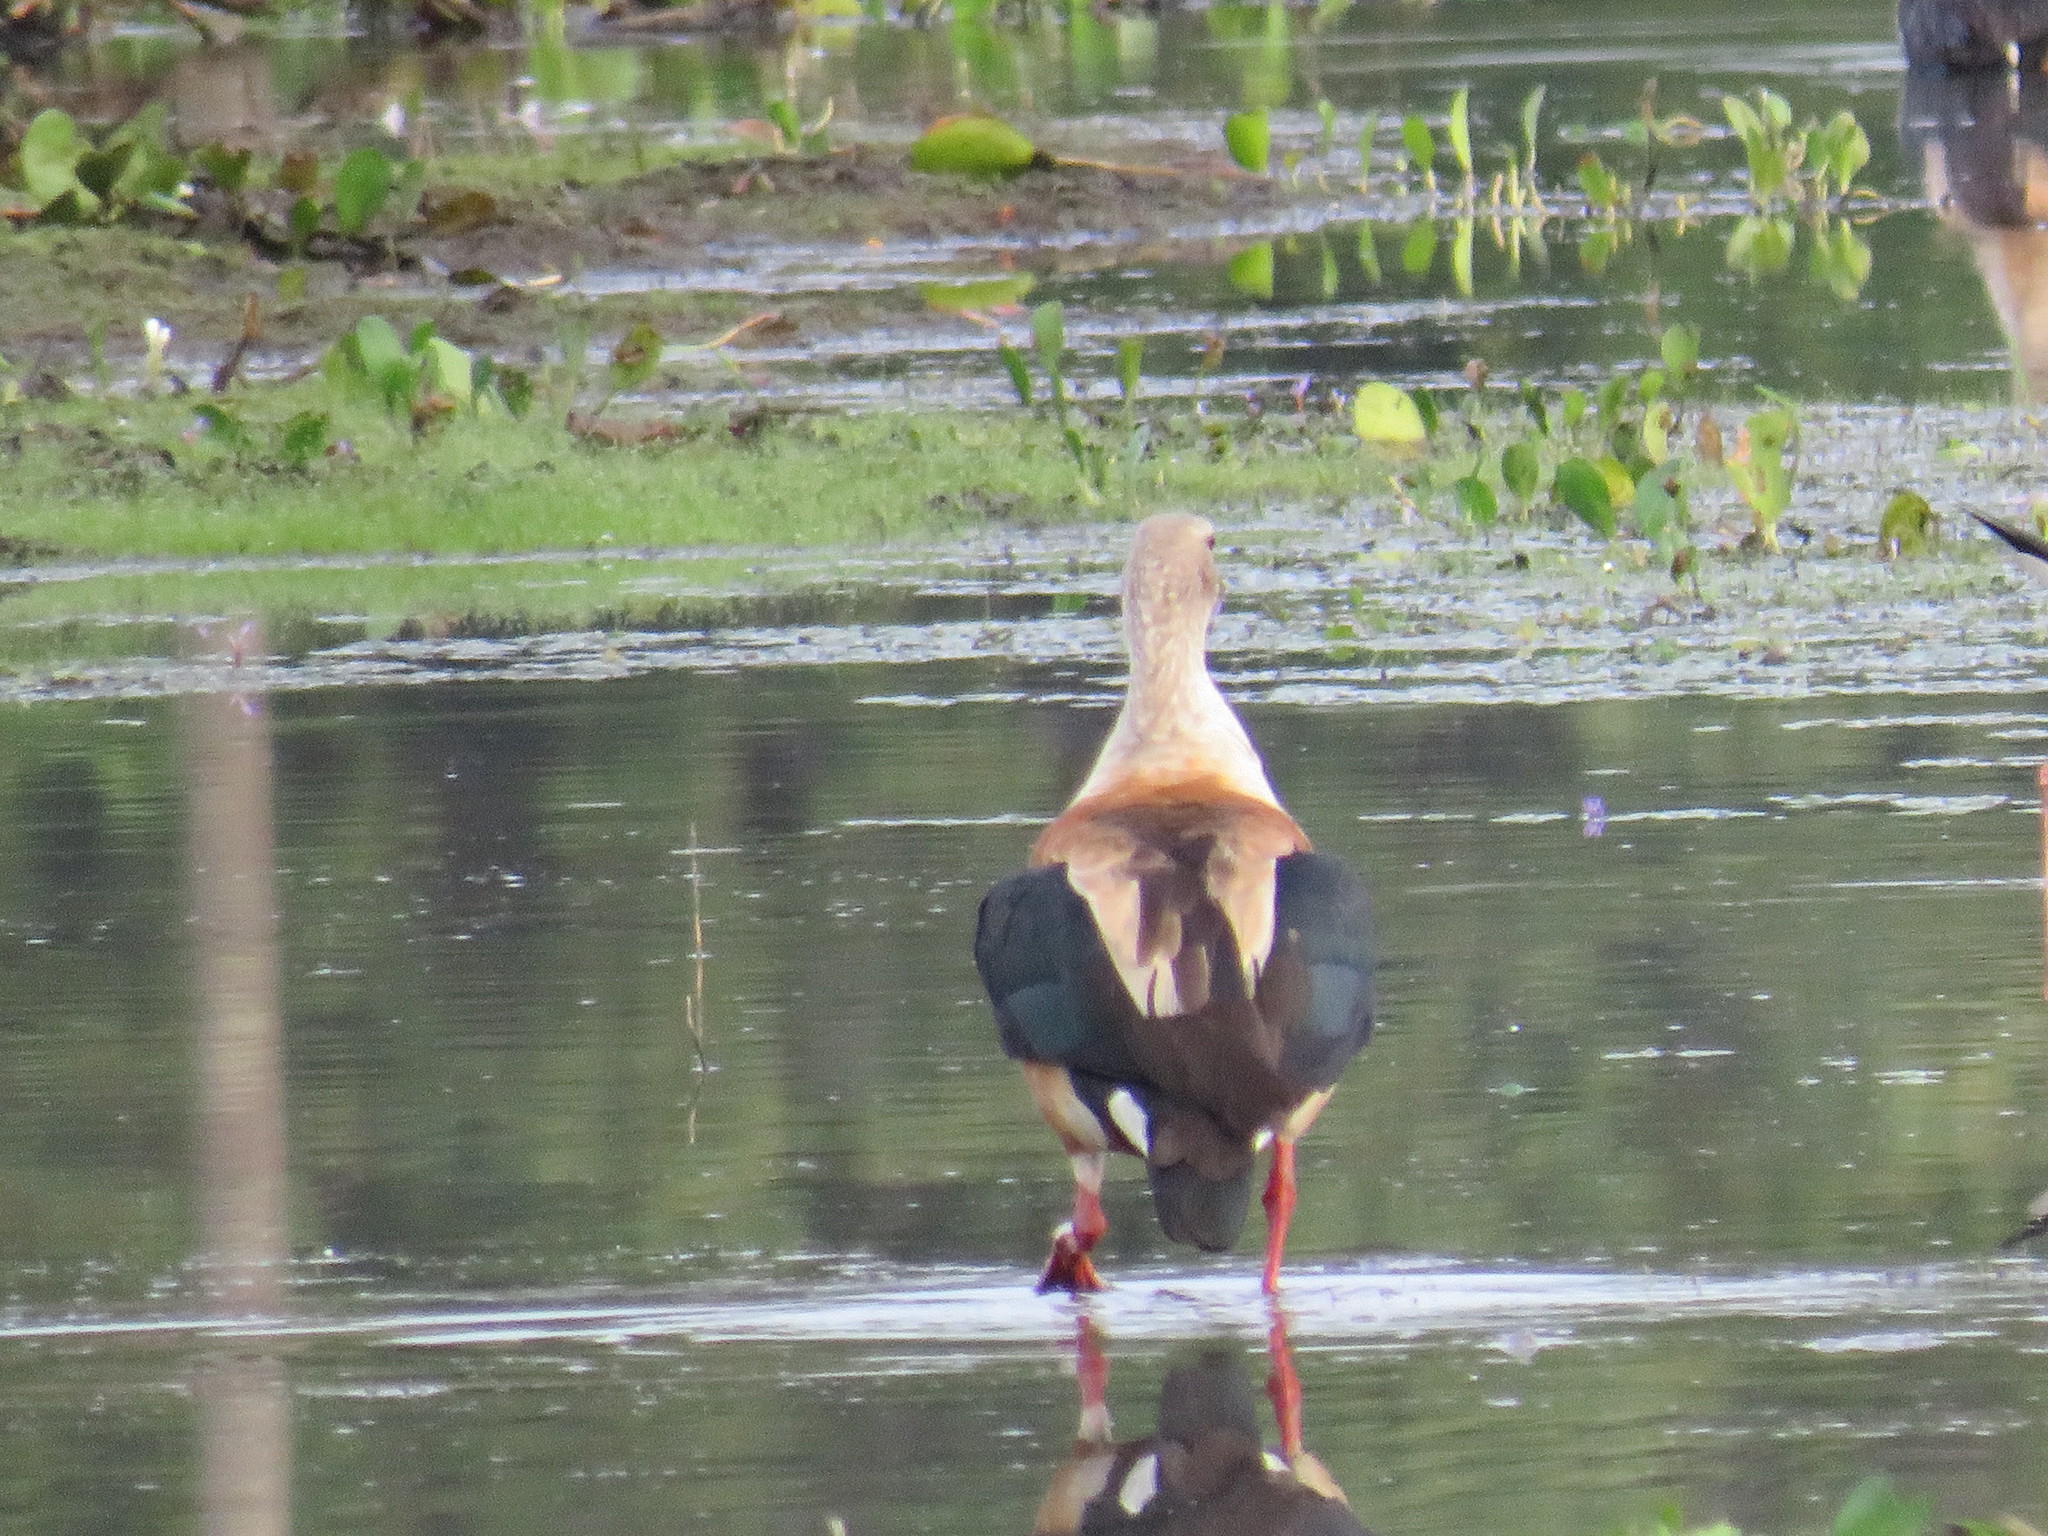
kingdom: Animalia
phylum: Chordata
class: Aves
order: Anseriformes
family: Anatidae
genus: Oressochen
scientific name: Oressochen jubatus
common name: Orinoco goose
